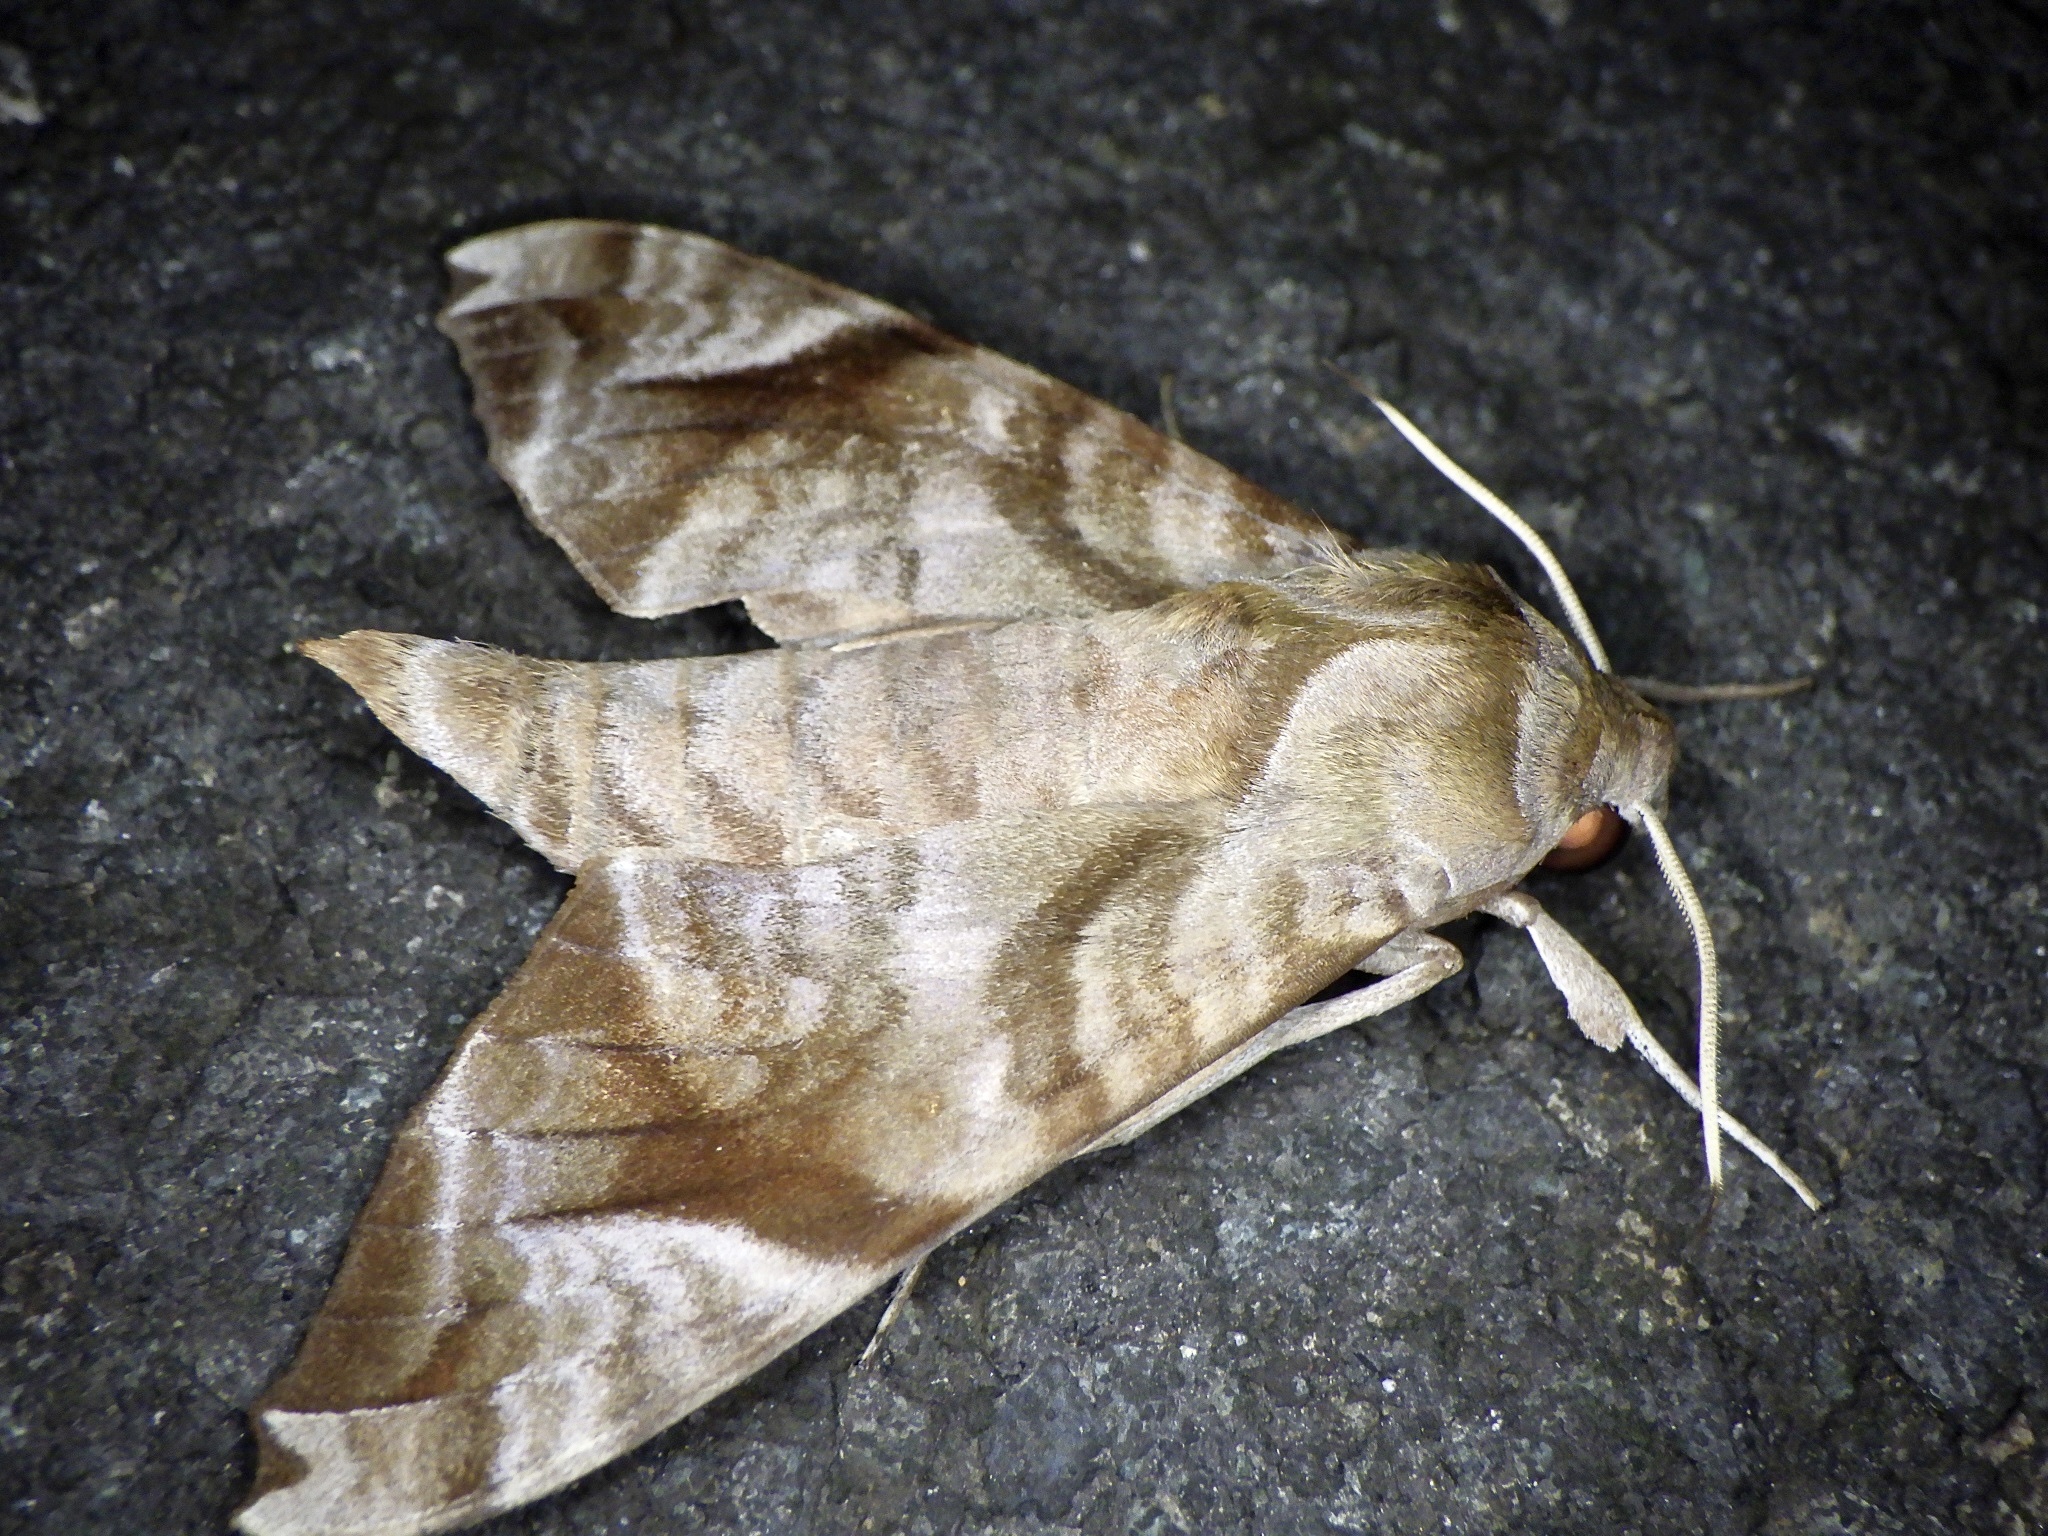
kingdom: Animalia
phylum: Arthropoda
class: Insecta
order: Lepidoptera
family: Sphingidae
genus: Acosmeryx
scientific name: Acosmeryx castanea
